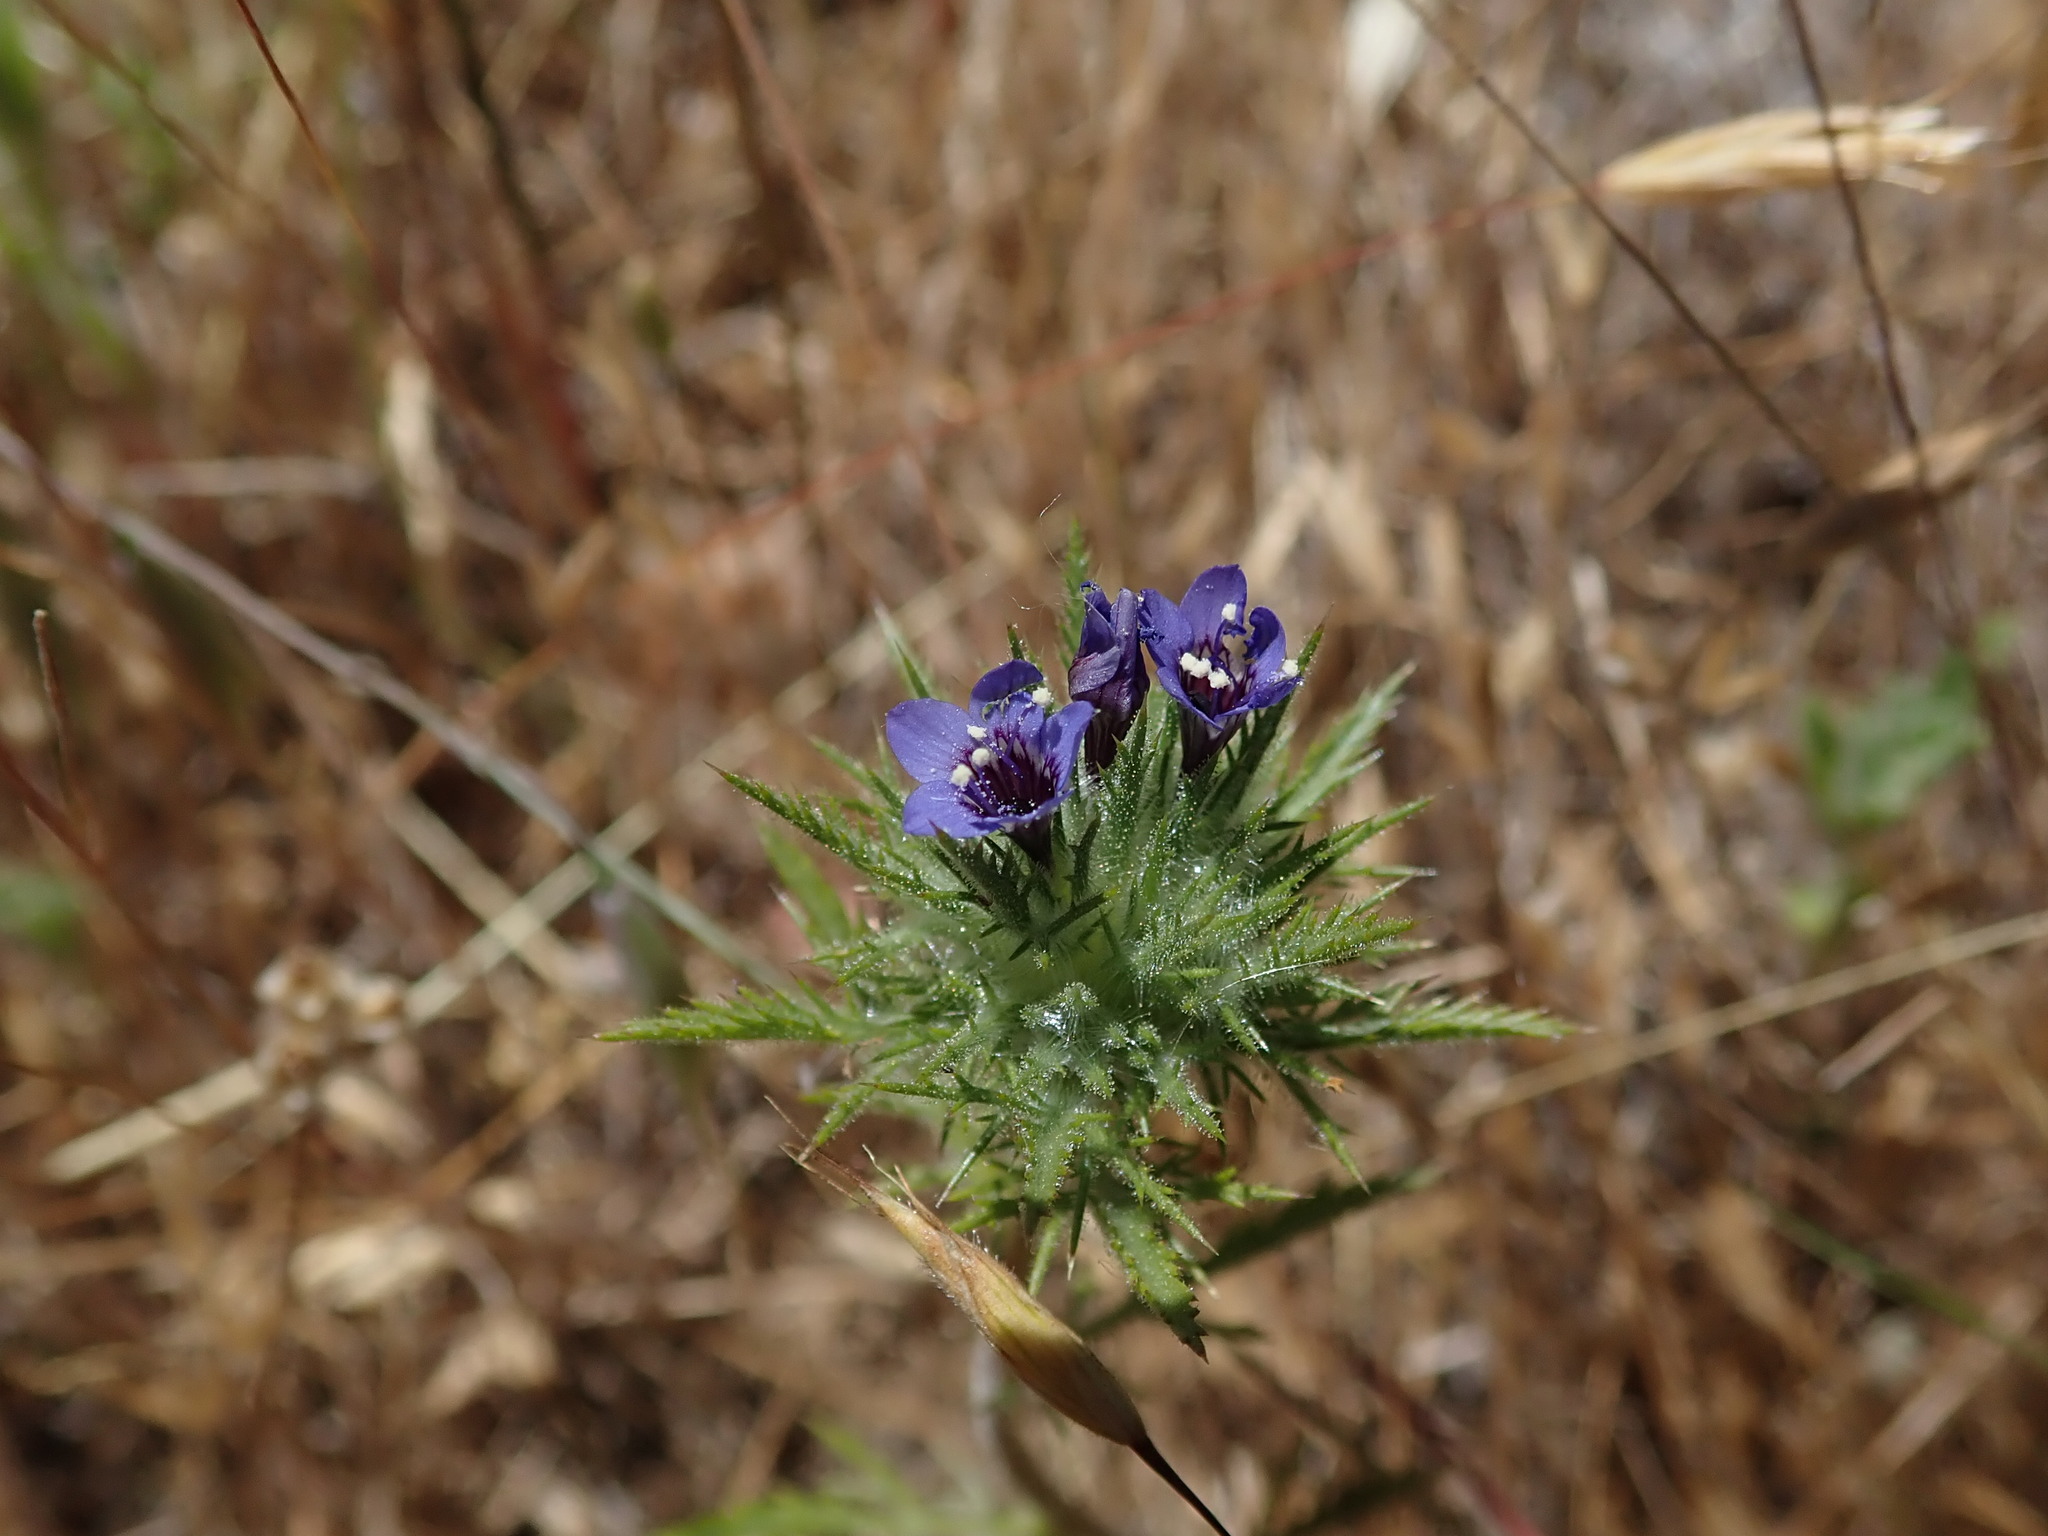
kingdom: Plantae
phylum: Tracheophyta
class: Magnoliopsida
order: Ericales
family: Polemoniaceae
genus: Navarretia
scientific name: Navarretia pubescens
